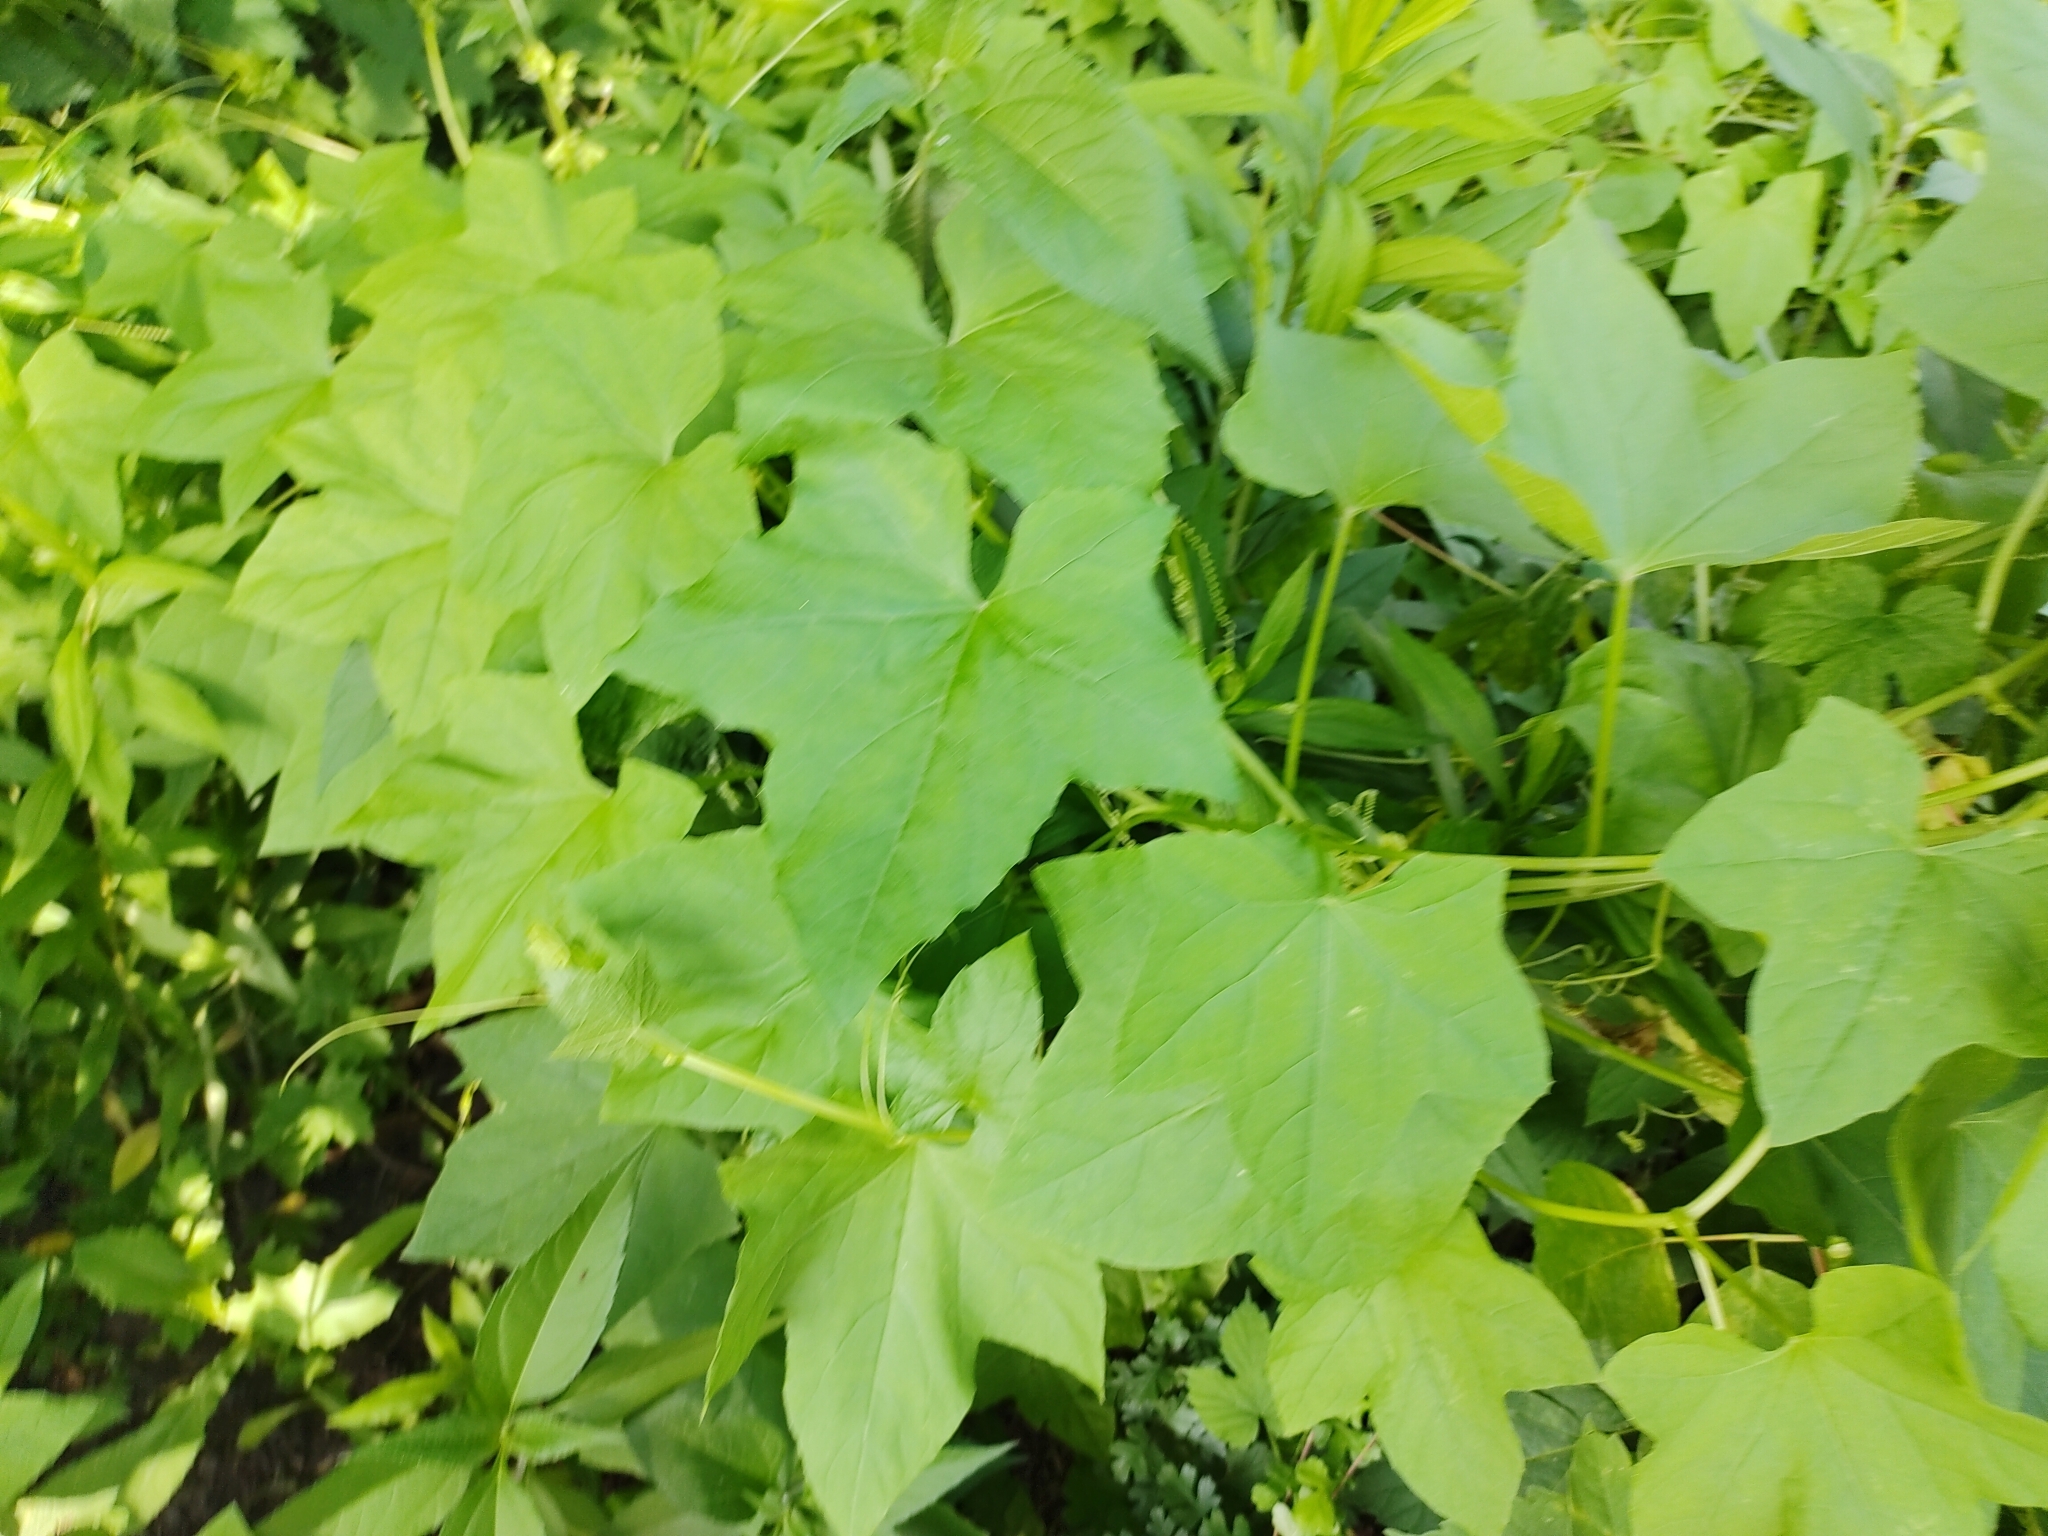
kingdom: Plantae
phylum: Tracheophyta
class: Magnoliopsida
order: Cucurbitales
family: Cucurbitaceae
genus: Echinocystis
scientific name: Echinocystis lobata
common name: Wild cucumber
